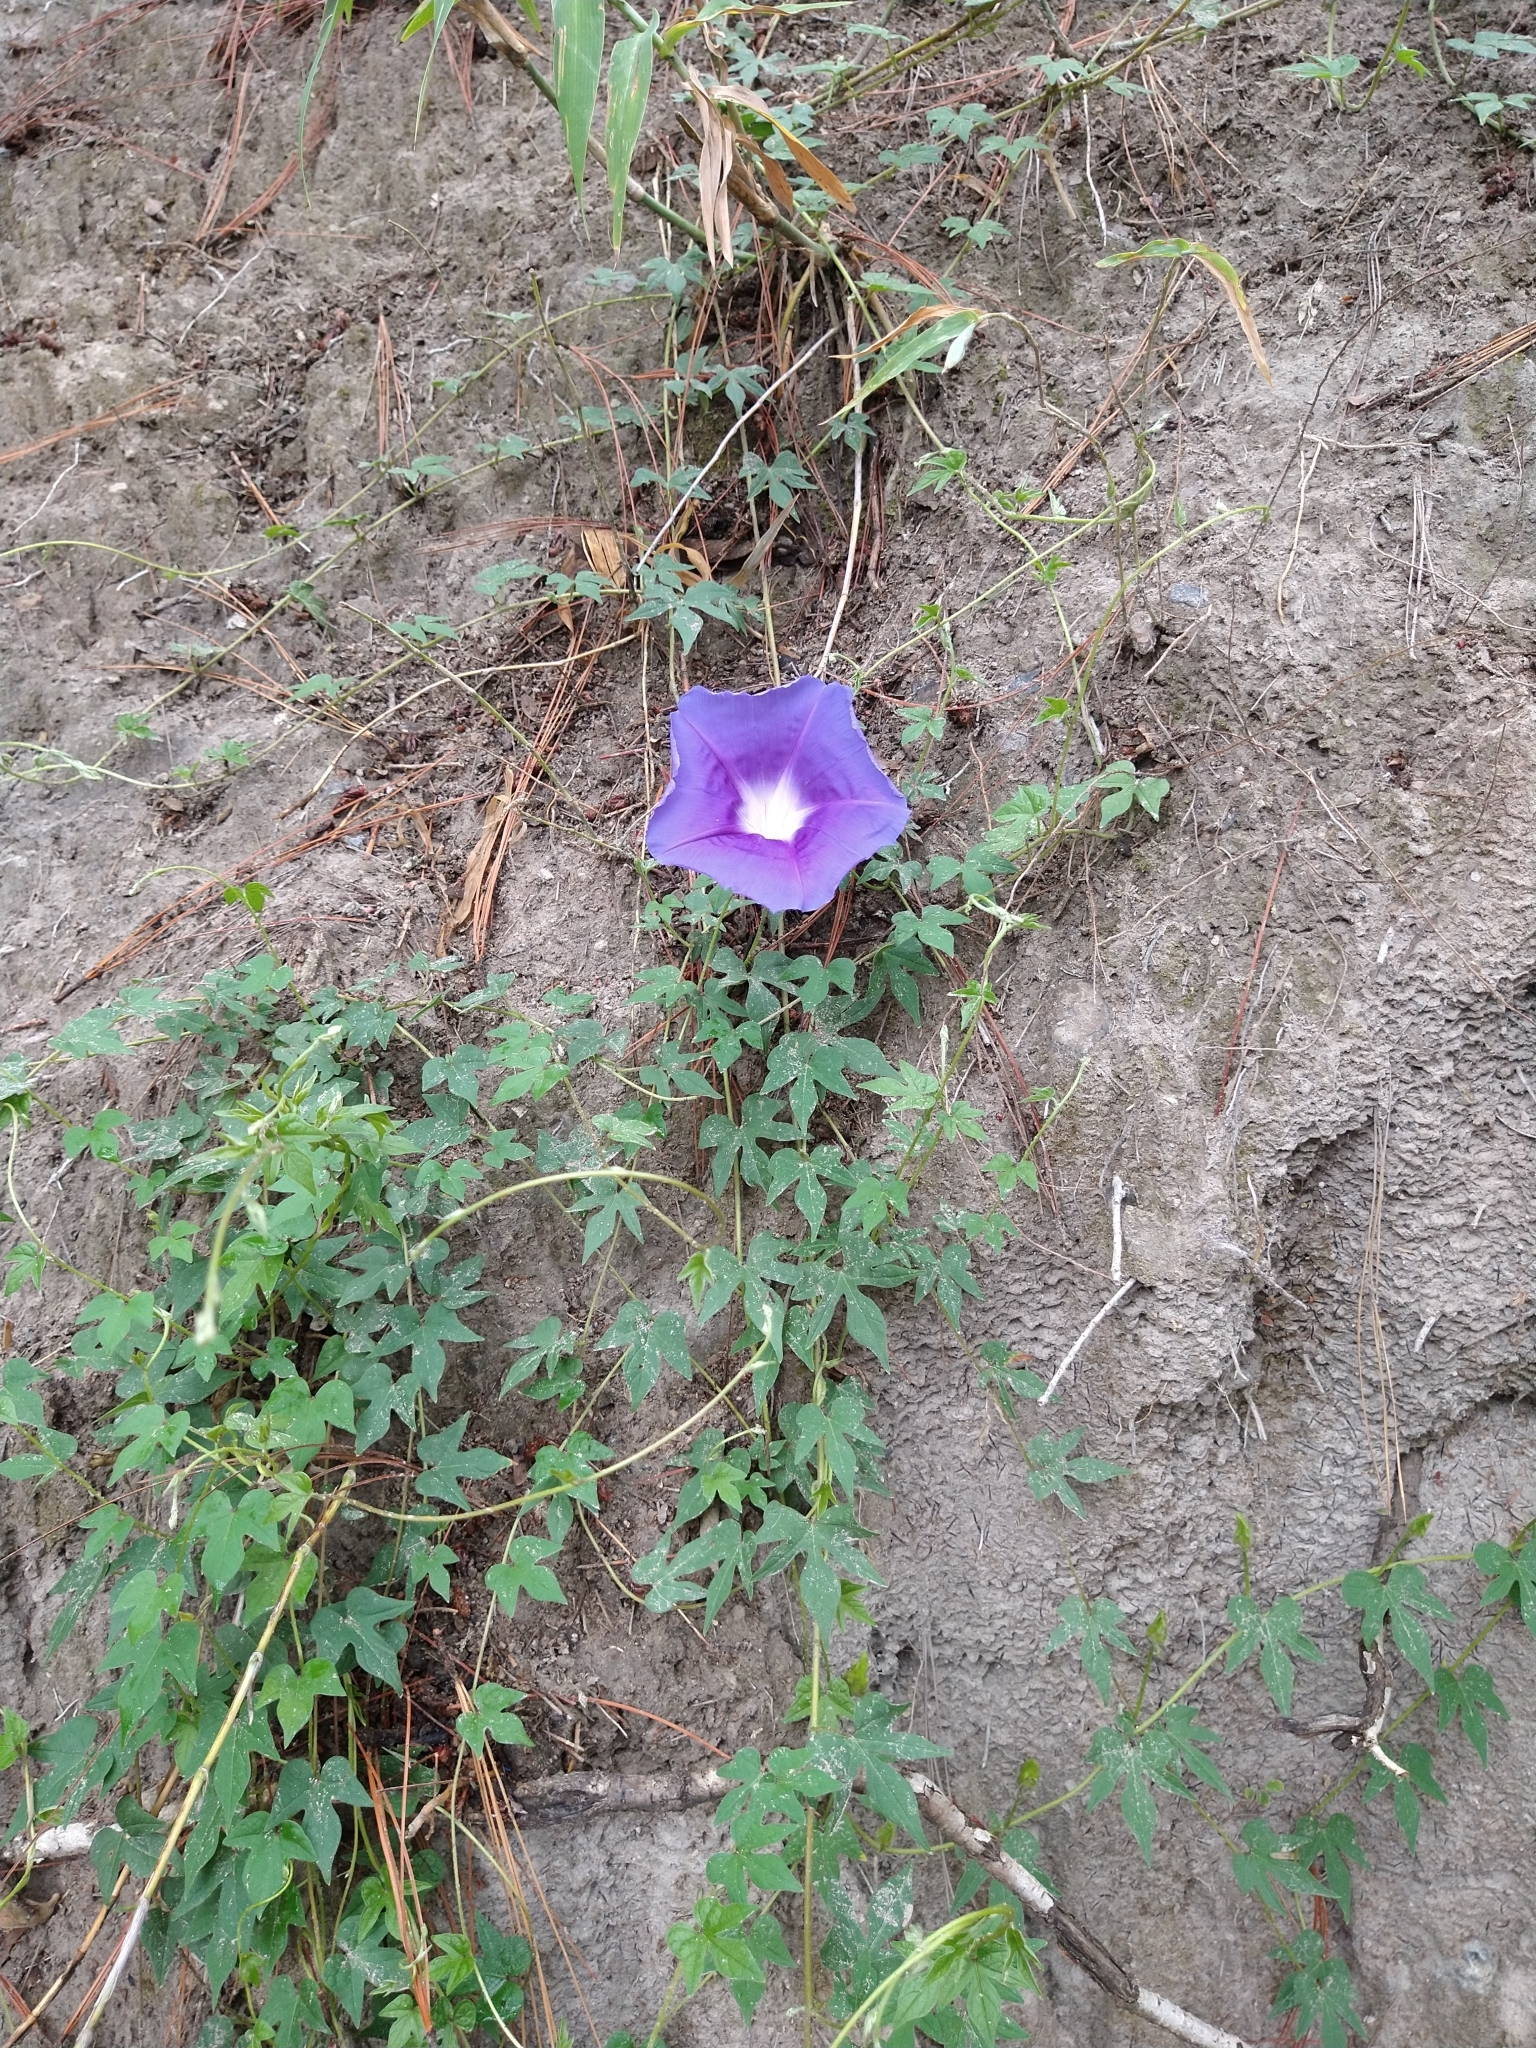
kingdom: Plantae
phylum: Tracheophyta
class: Magnoliopsida
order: Solanales
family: Convolvulaceae
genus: Ipomoea
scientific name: Ipomoea laeta
